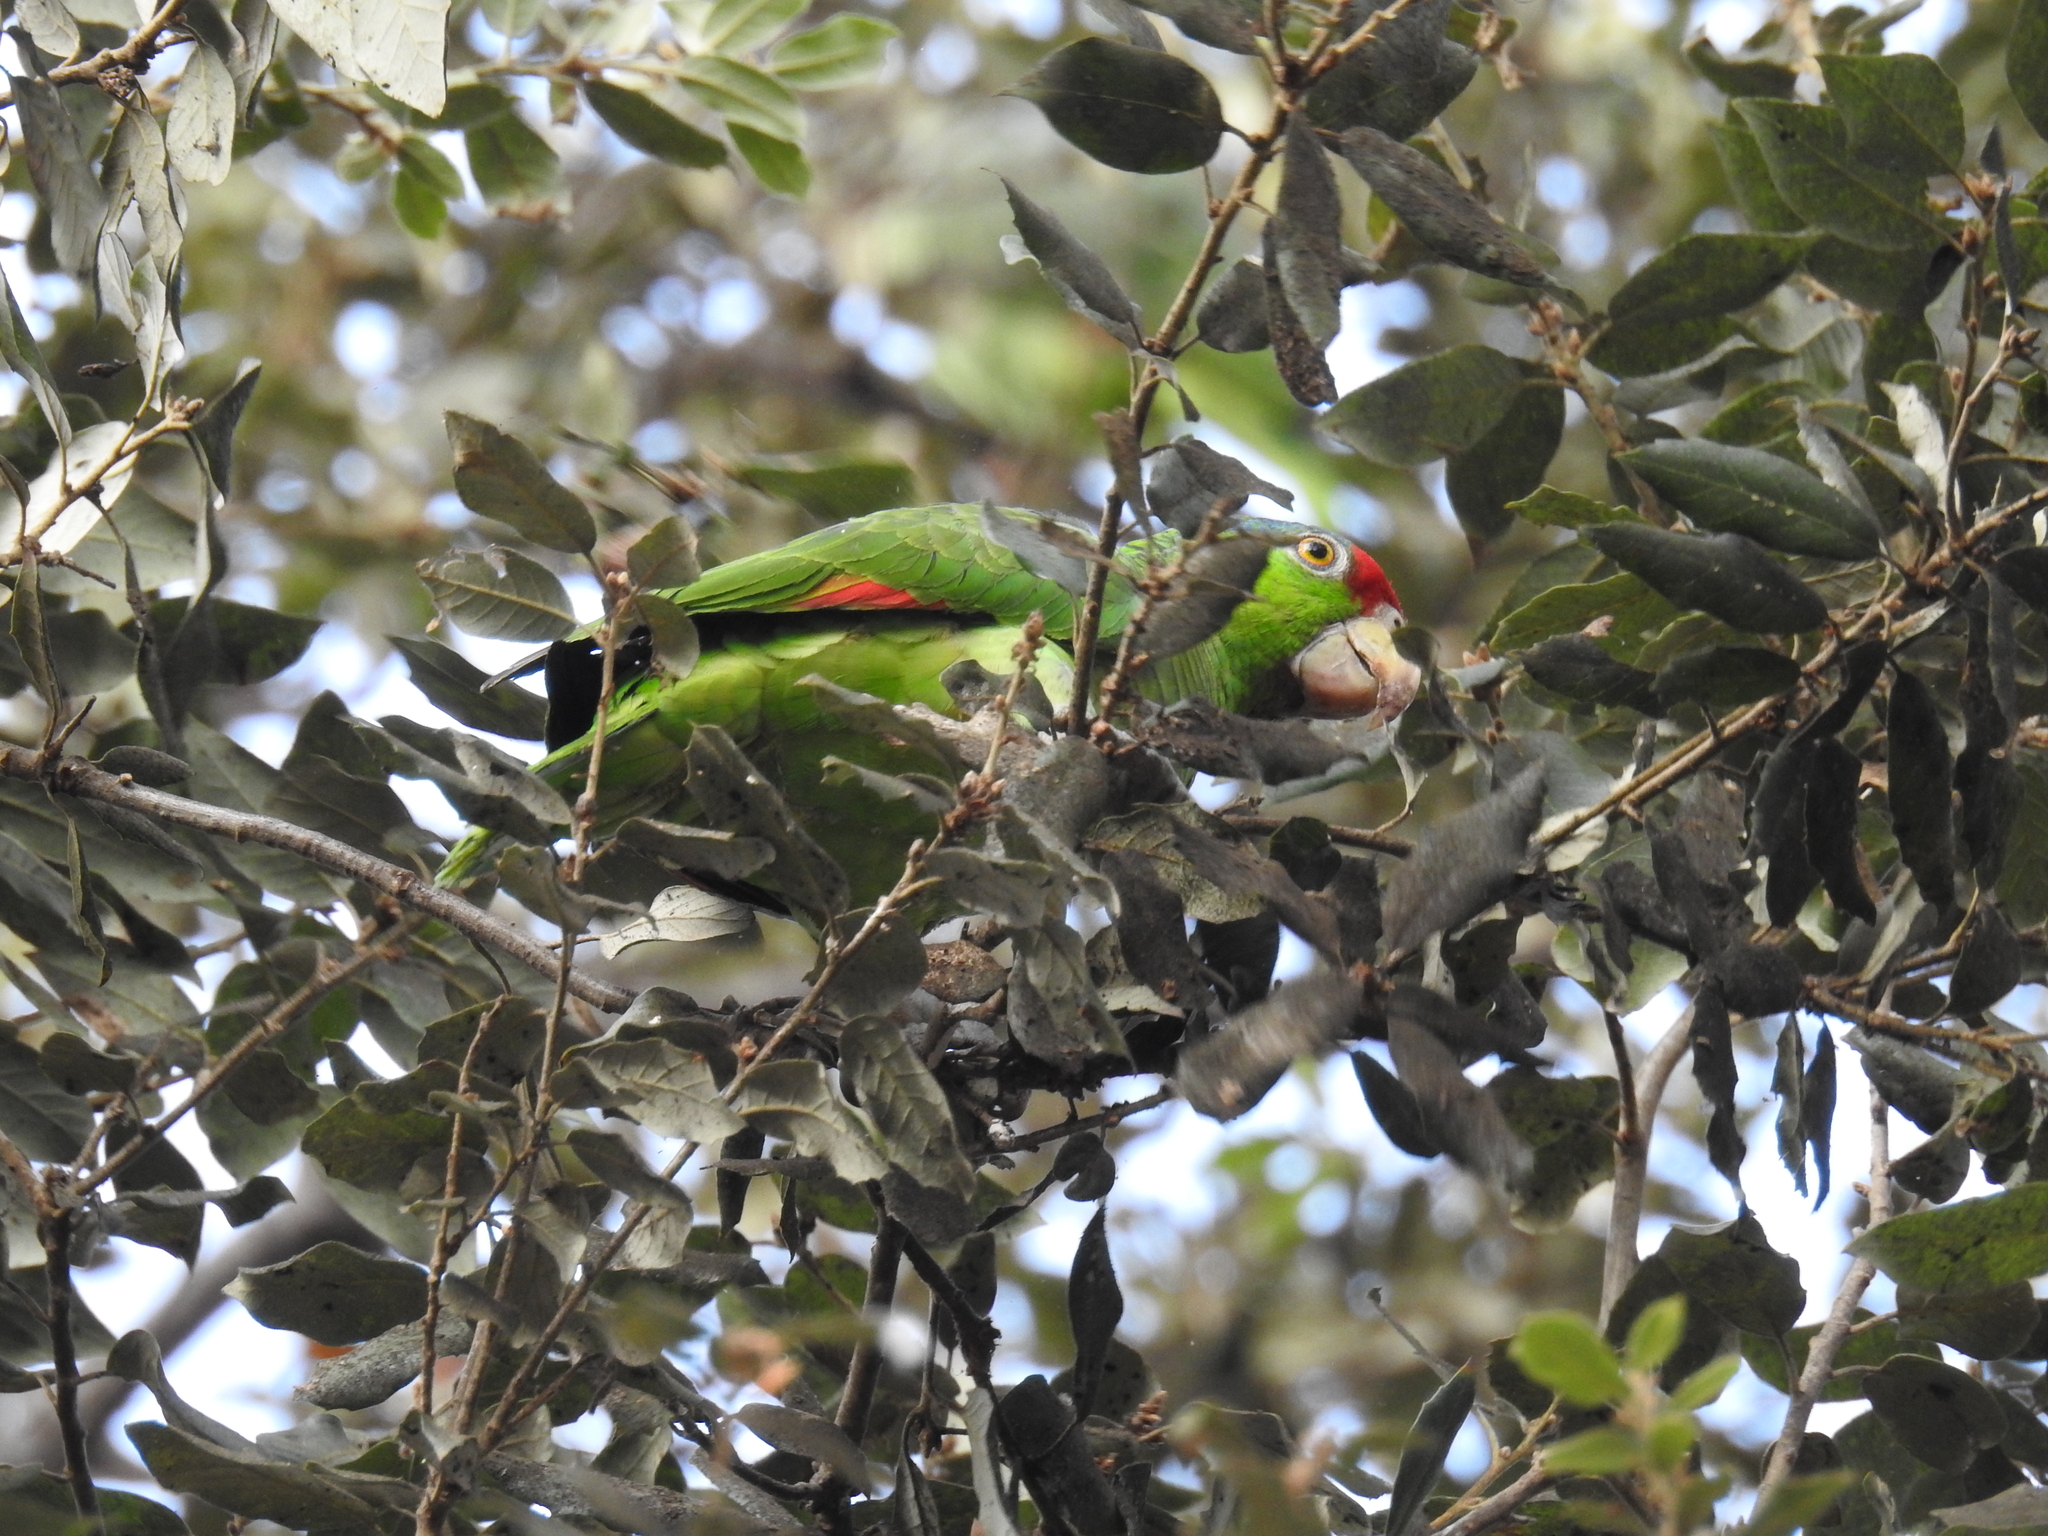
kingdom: Animalia
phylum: Chordata
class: Aves
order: Psittaciformes
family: Psittacidae
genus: Amazona
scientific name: Amazona viridigenalis
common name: Red-crowned amazon
